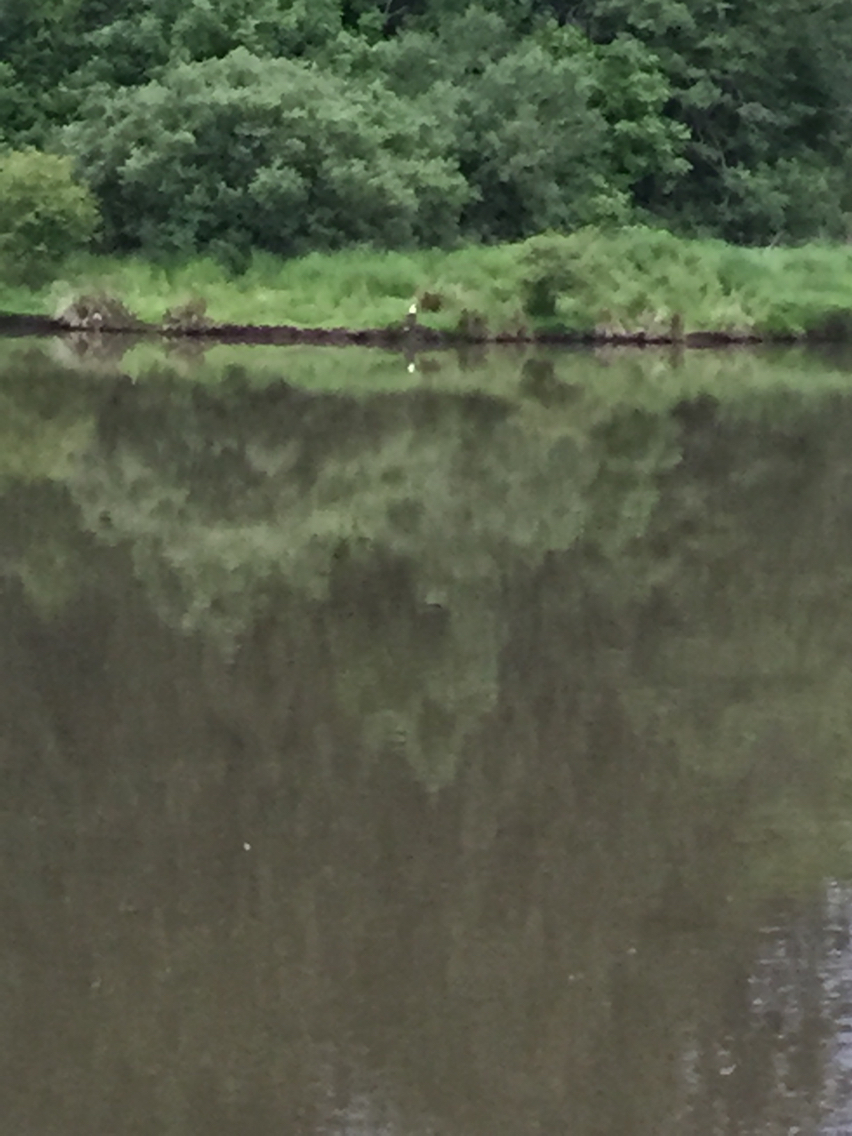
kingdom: Animalia
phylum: Chordata
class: Aves
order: Accipitriformes
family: Accipitridae
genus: Haliaeetus
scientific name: Haliaeetus leucocephalus
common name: Bald eagle
